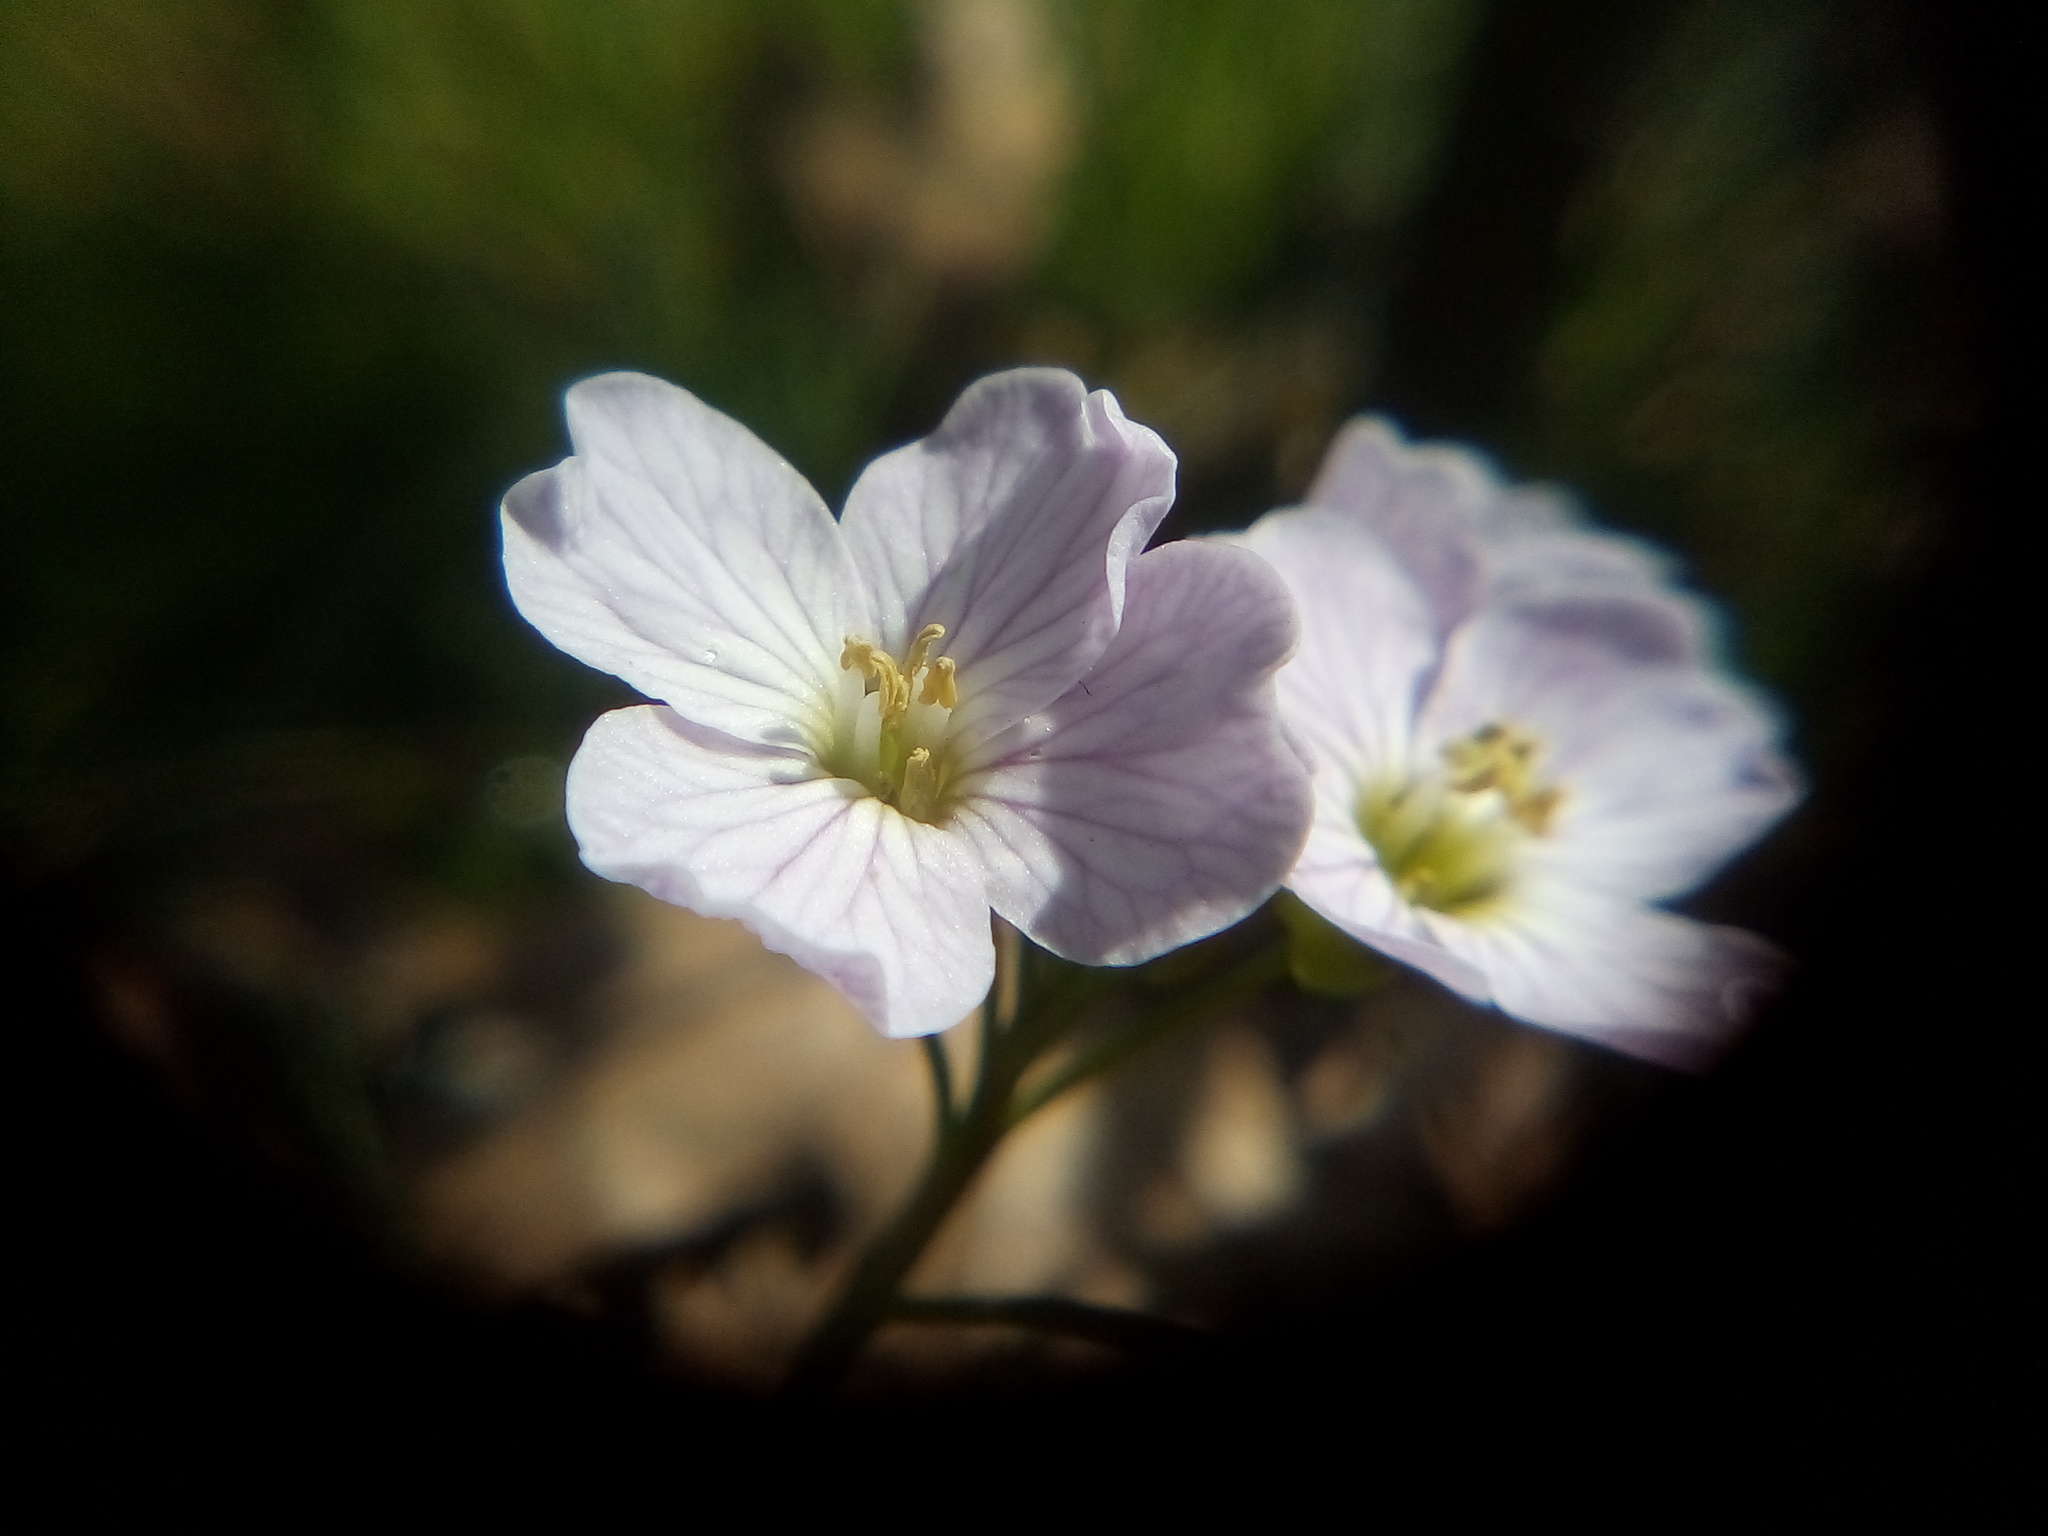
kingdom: Plantae
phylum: Tracheophyta
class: Magnoliopsida
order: Brassicales
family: Brassicaceae
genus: Cardamine
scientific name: Cardamine pratensis
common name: Cuckoo flower
